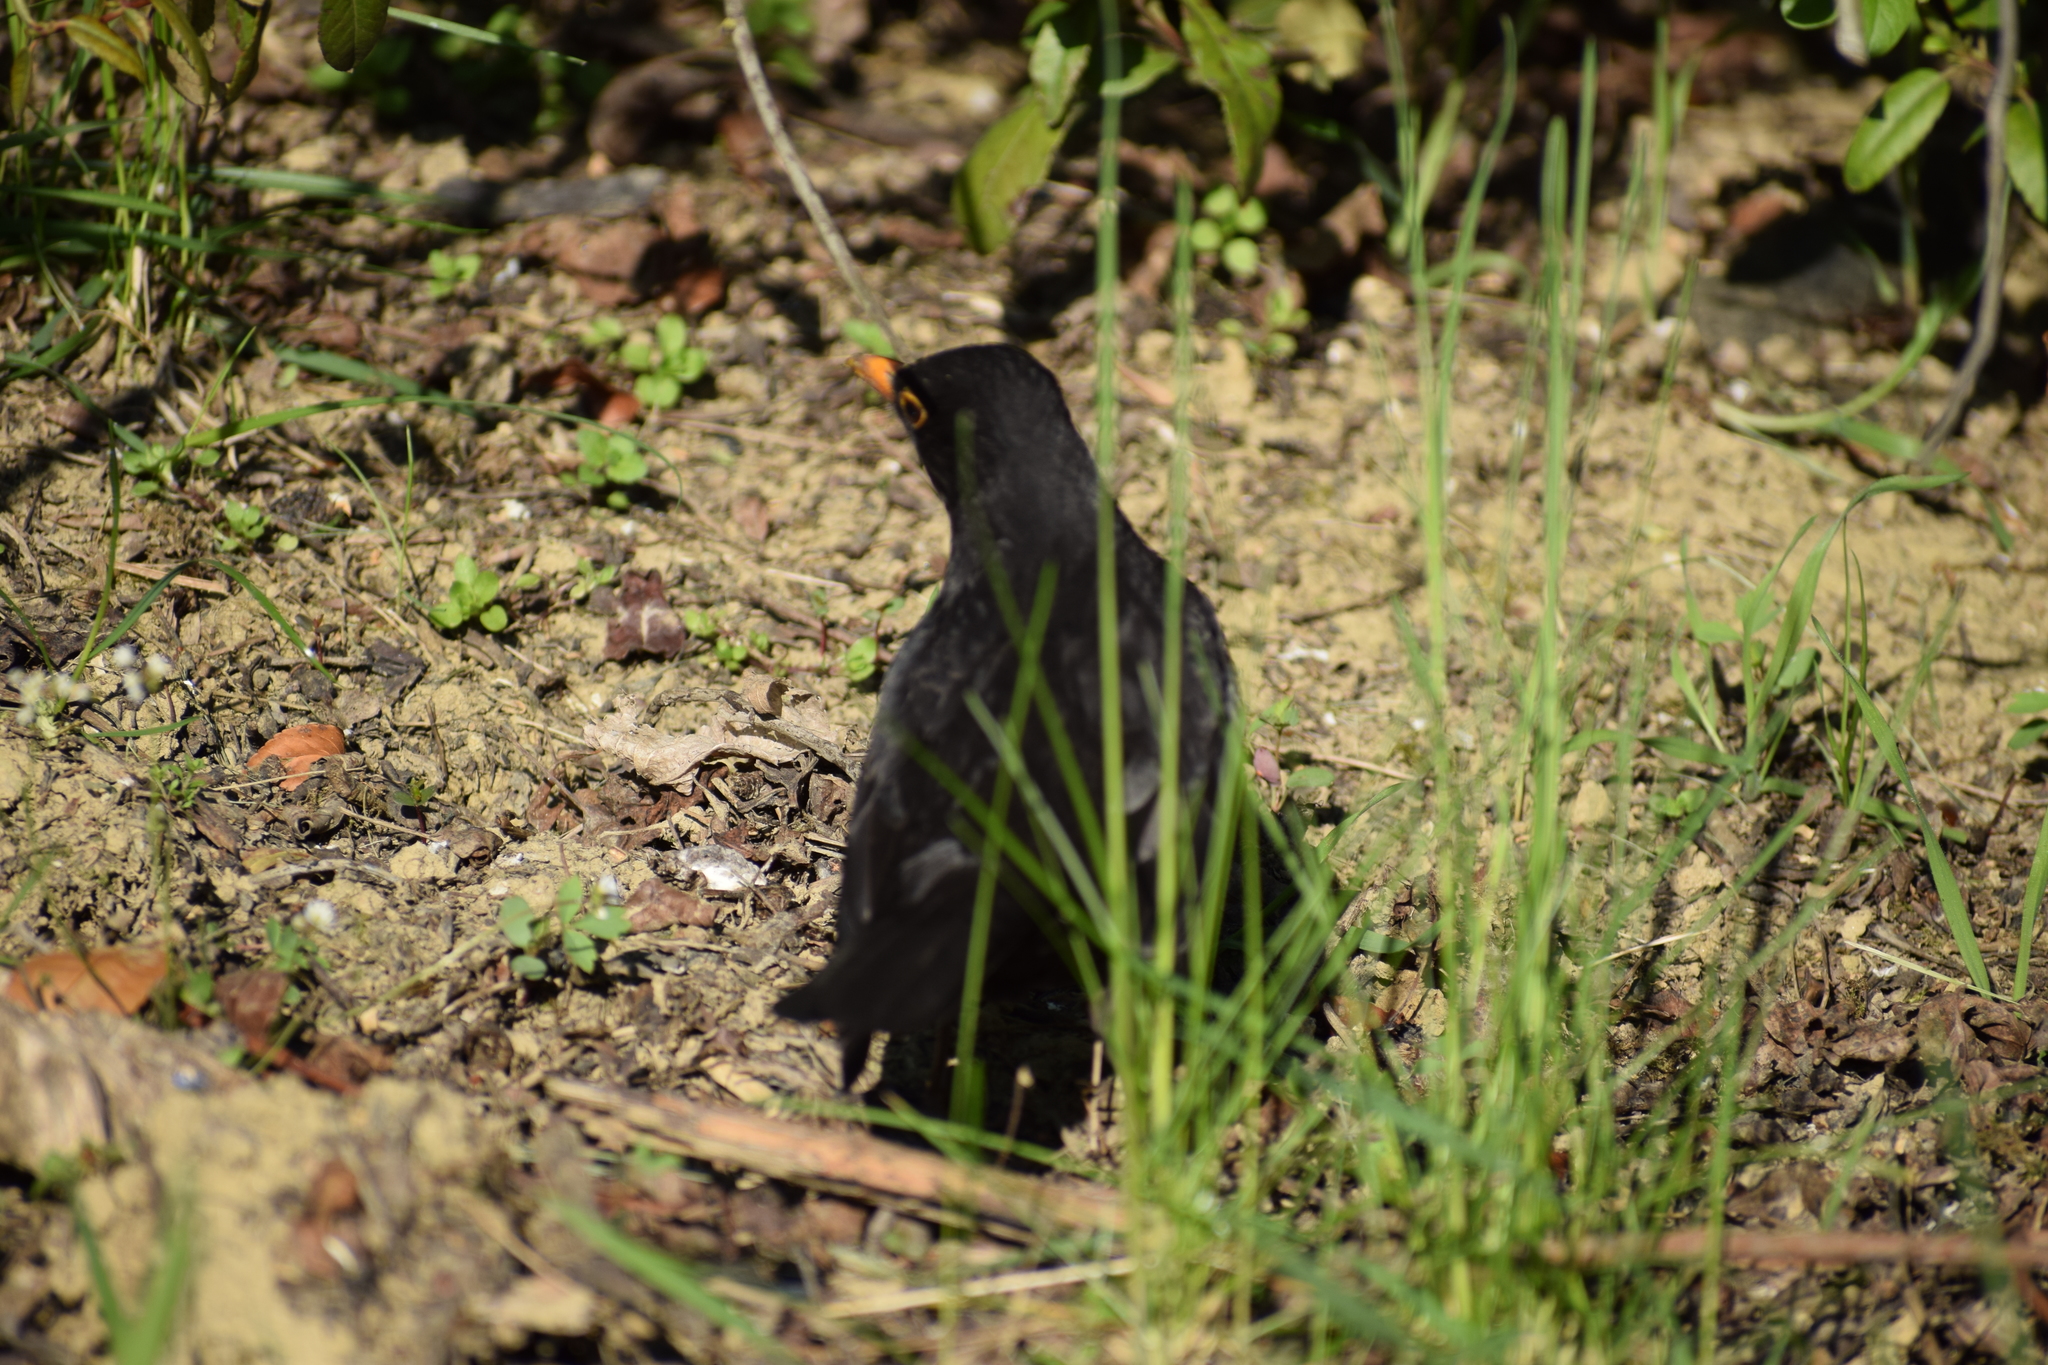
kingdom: Animalia
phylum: Chordata
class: Aves
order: Passeriformes
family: Turdidae
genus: Turdus
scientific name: Turdus merula
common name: Common blackbird
